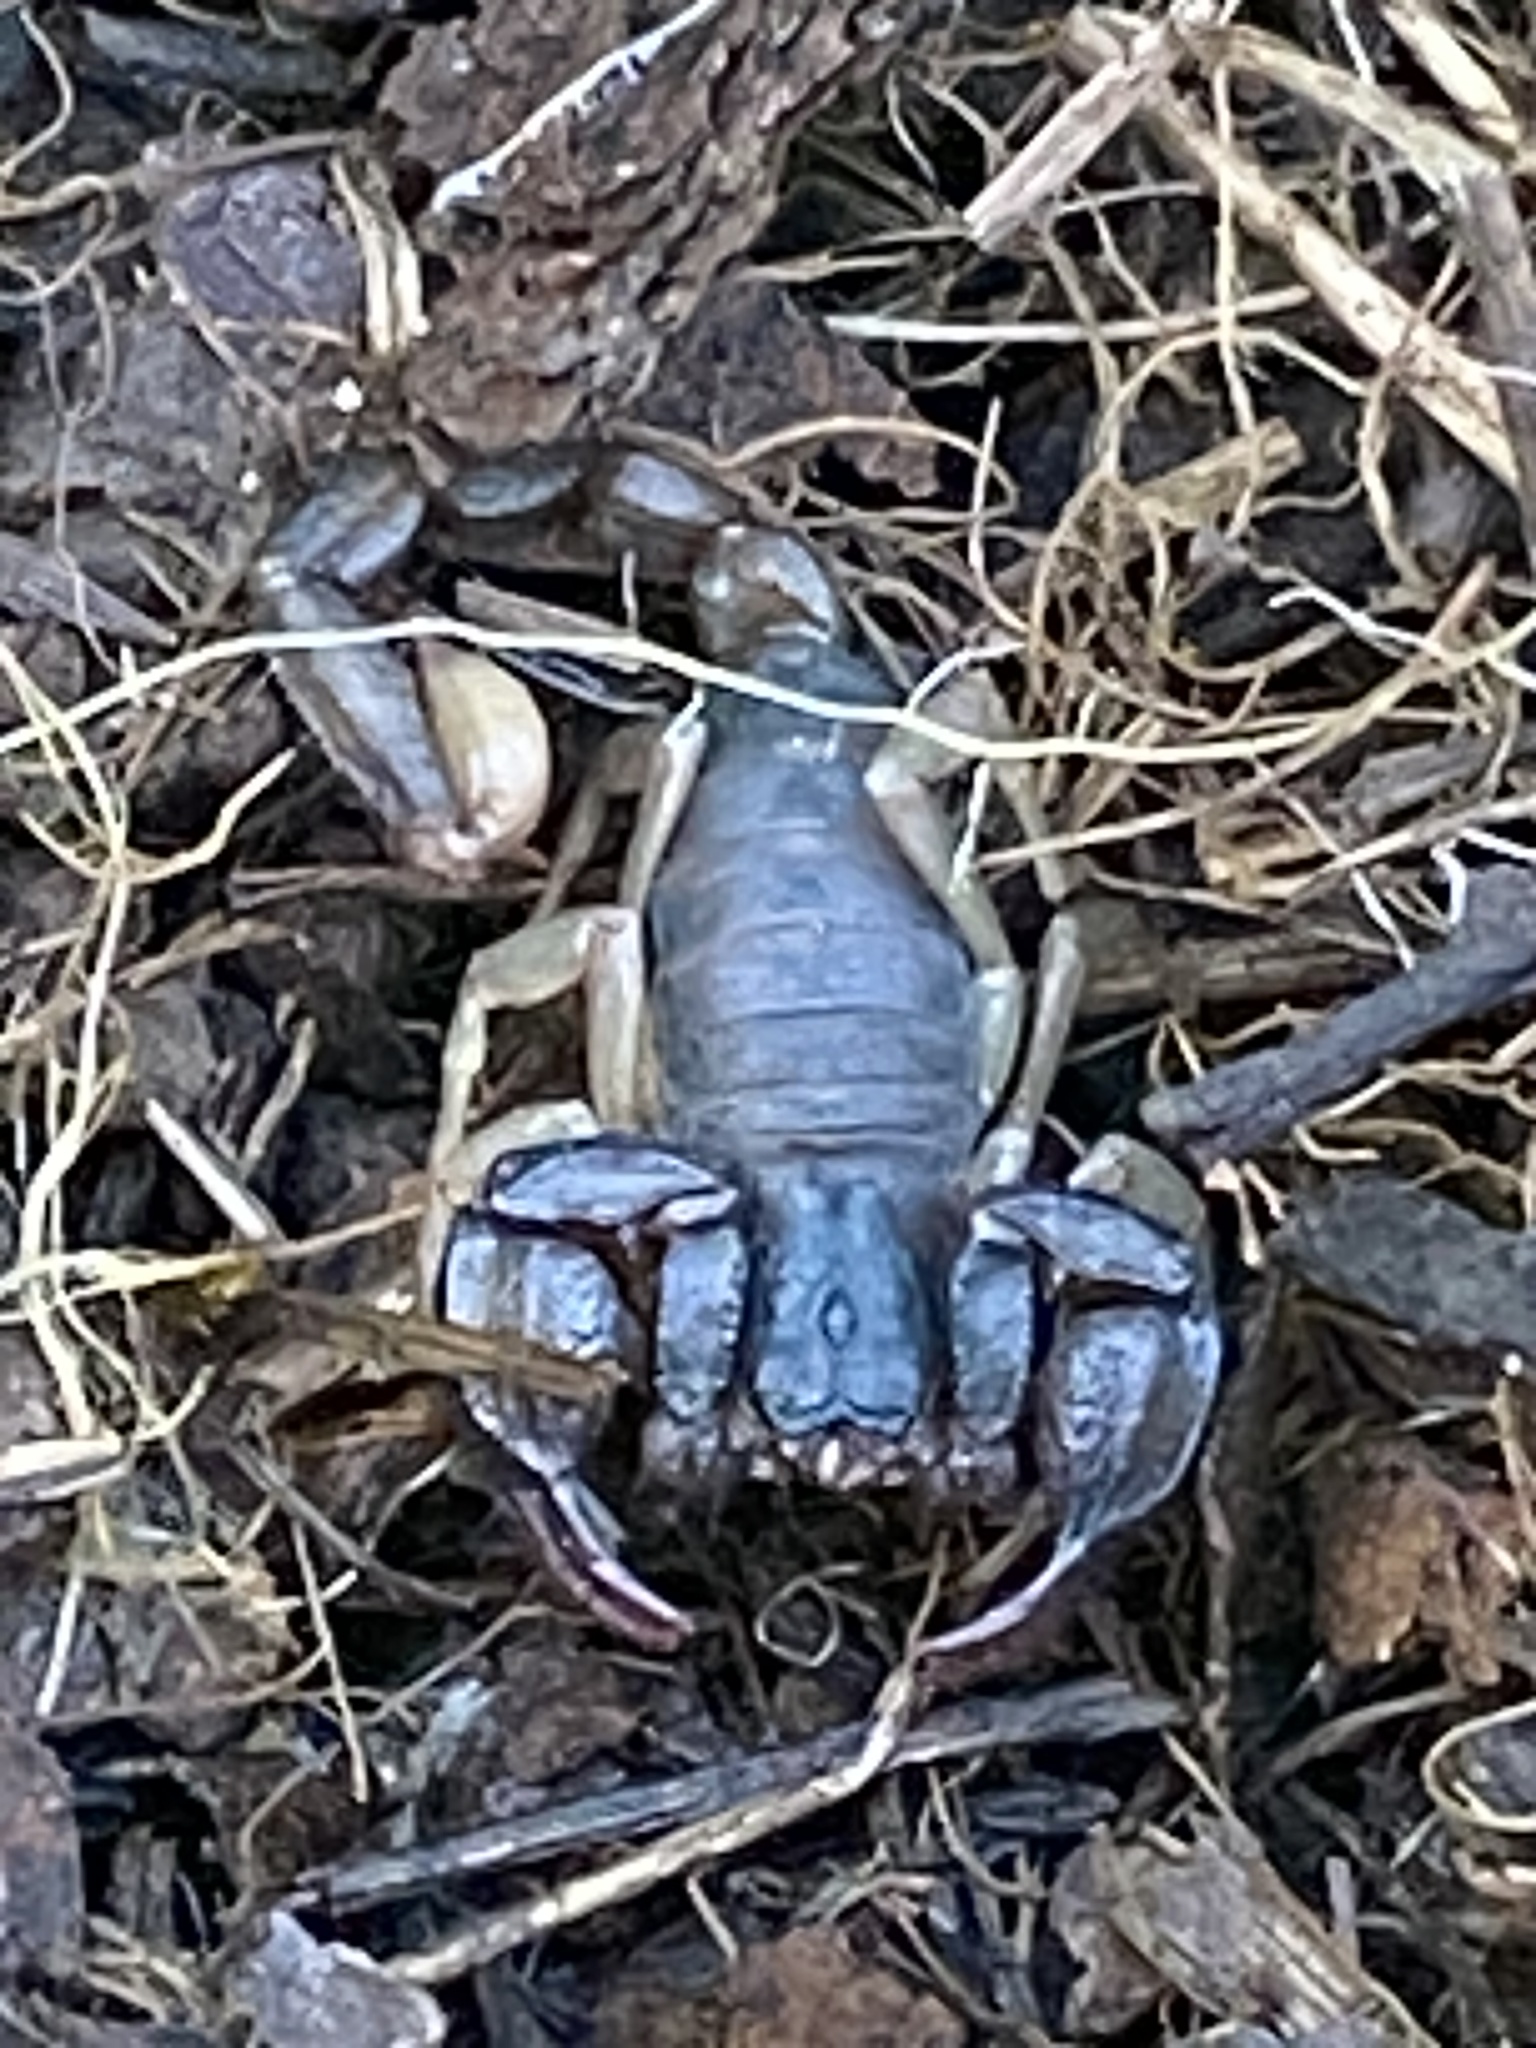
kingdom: Animalia
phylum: Arthropoda
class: Arachnida
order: Scorpiones
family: Chactidae
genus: Uroctonus
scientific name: Uroctonus mordax
